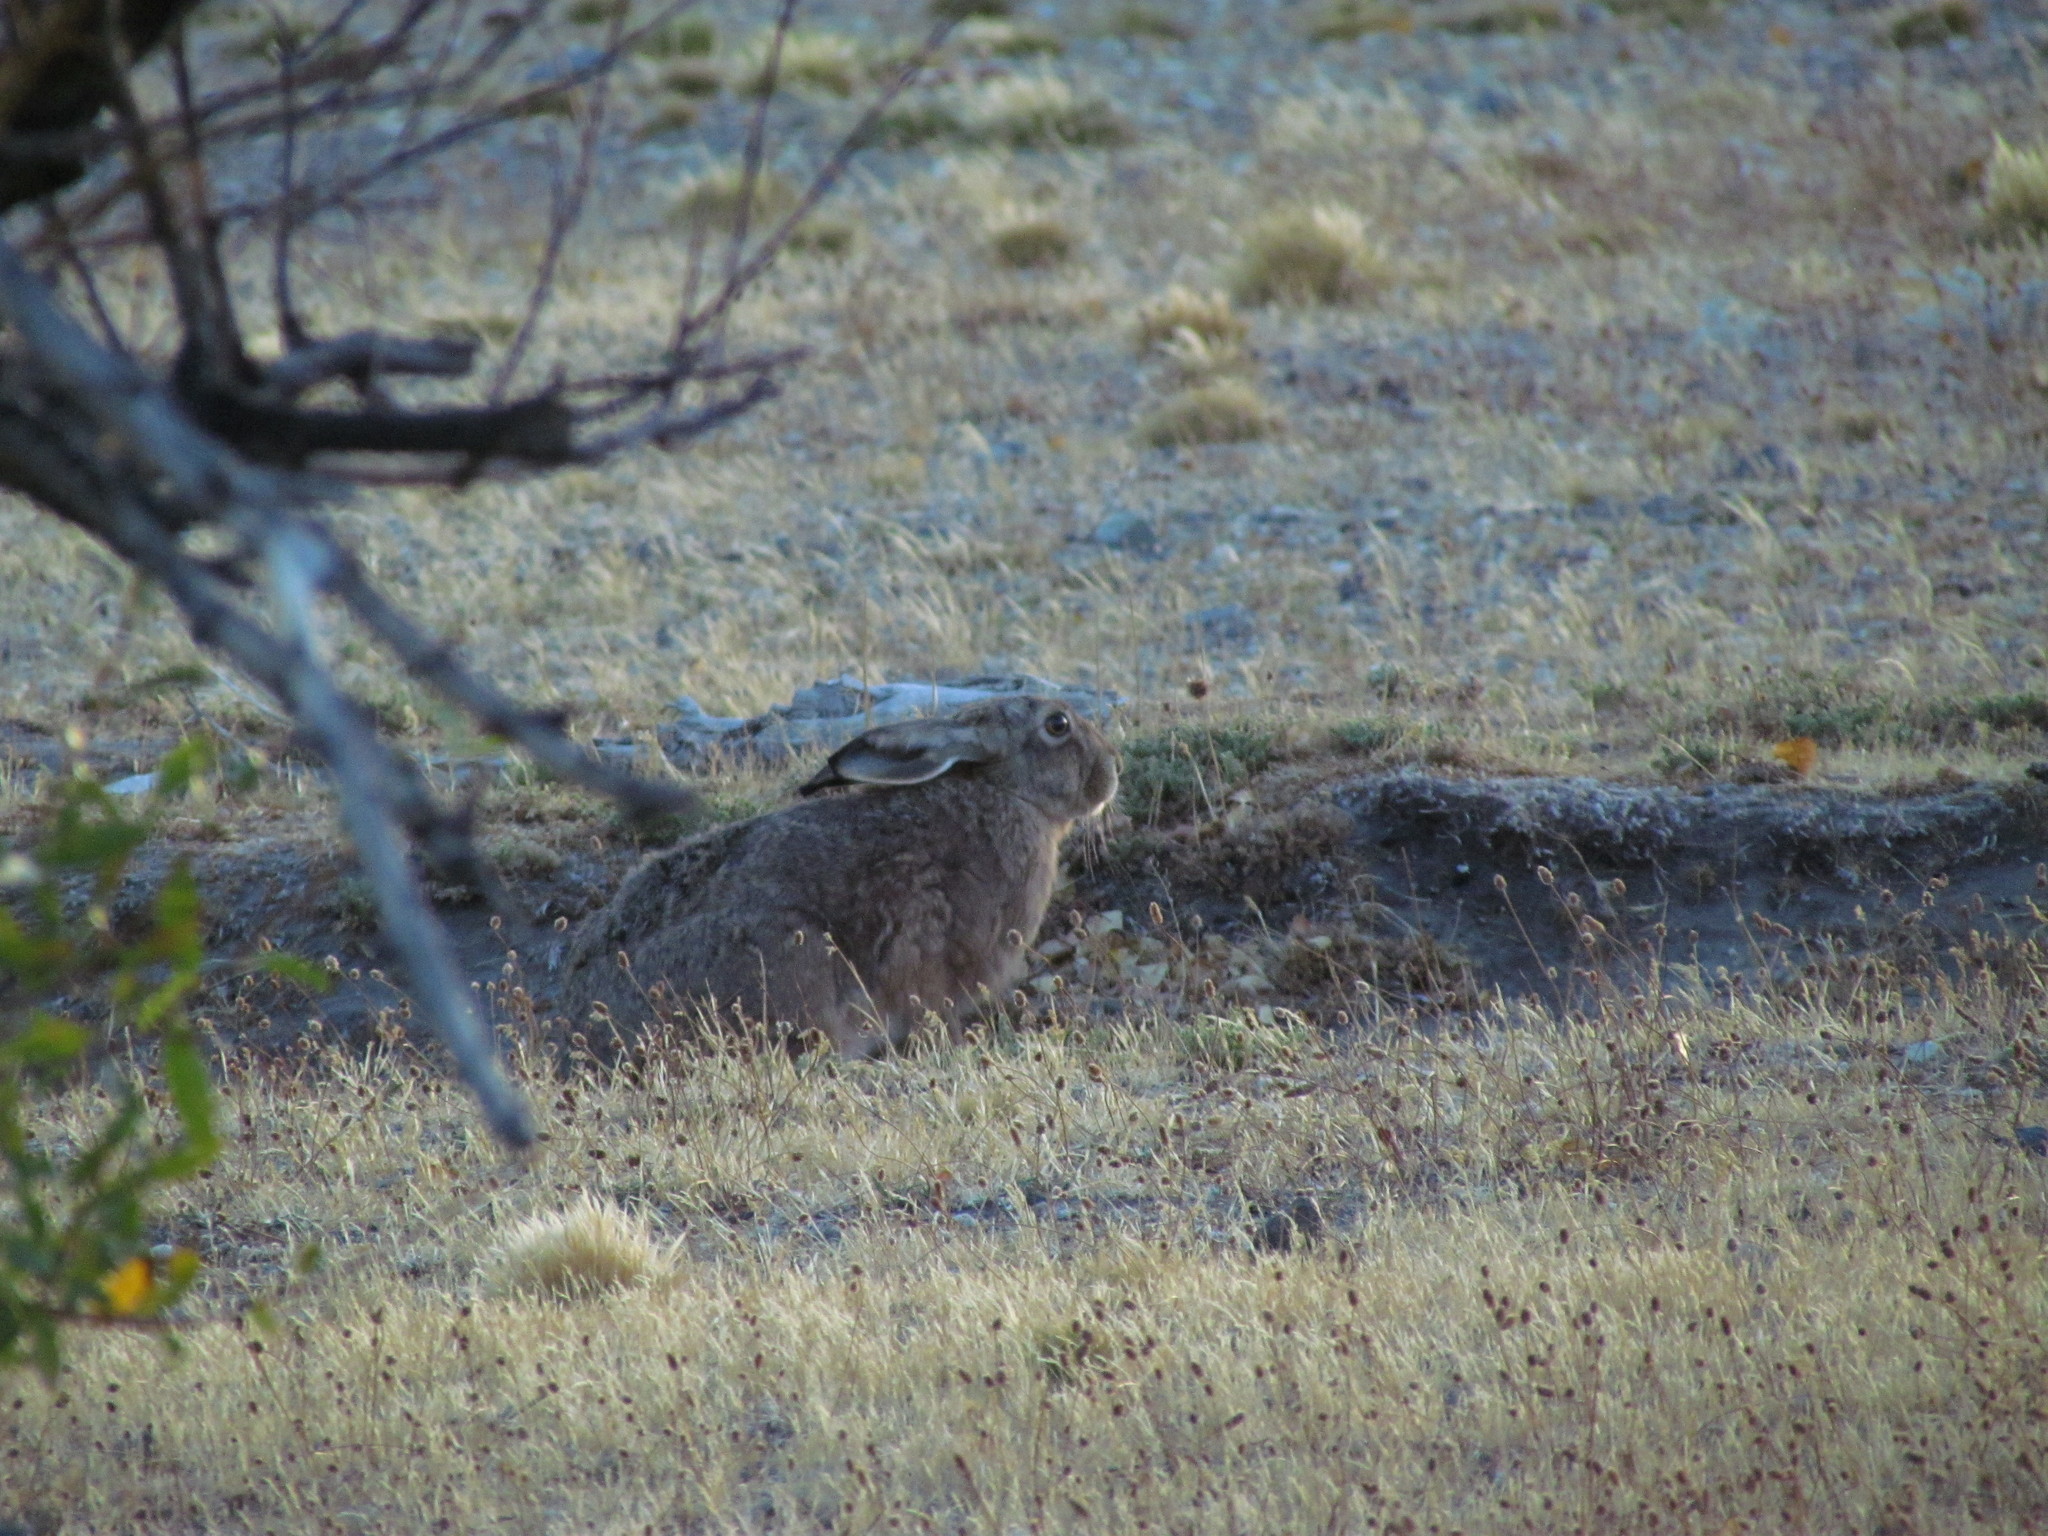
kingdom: Animalia
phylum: Chordata
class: Mammalia
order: Lagomorpha
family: Leporidae
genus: Lepus
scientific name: Lepus europaeus
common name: European hare
